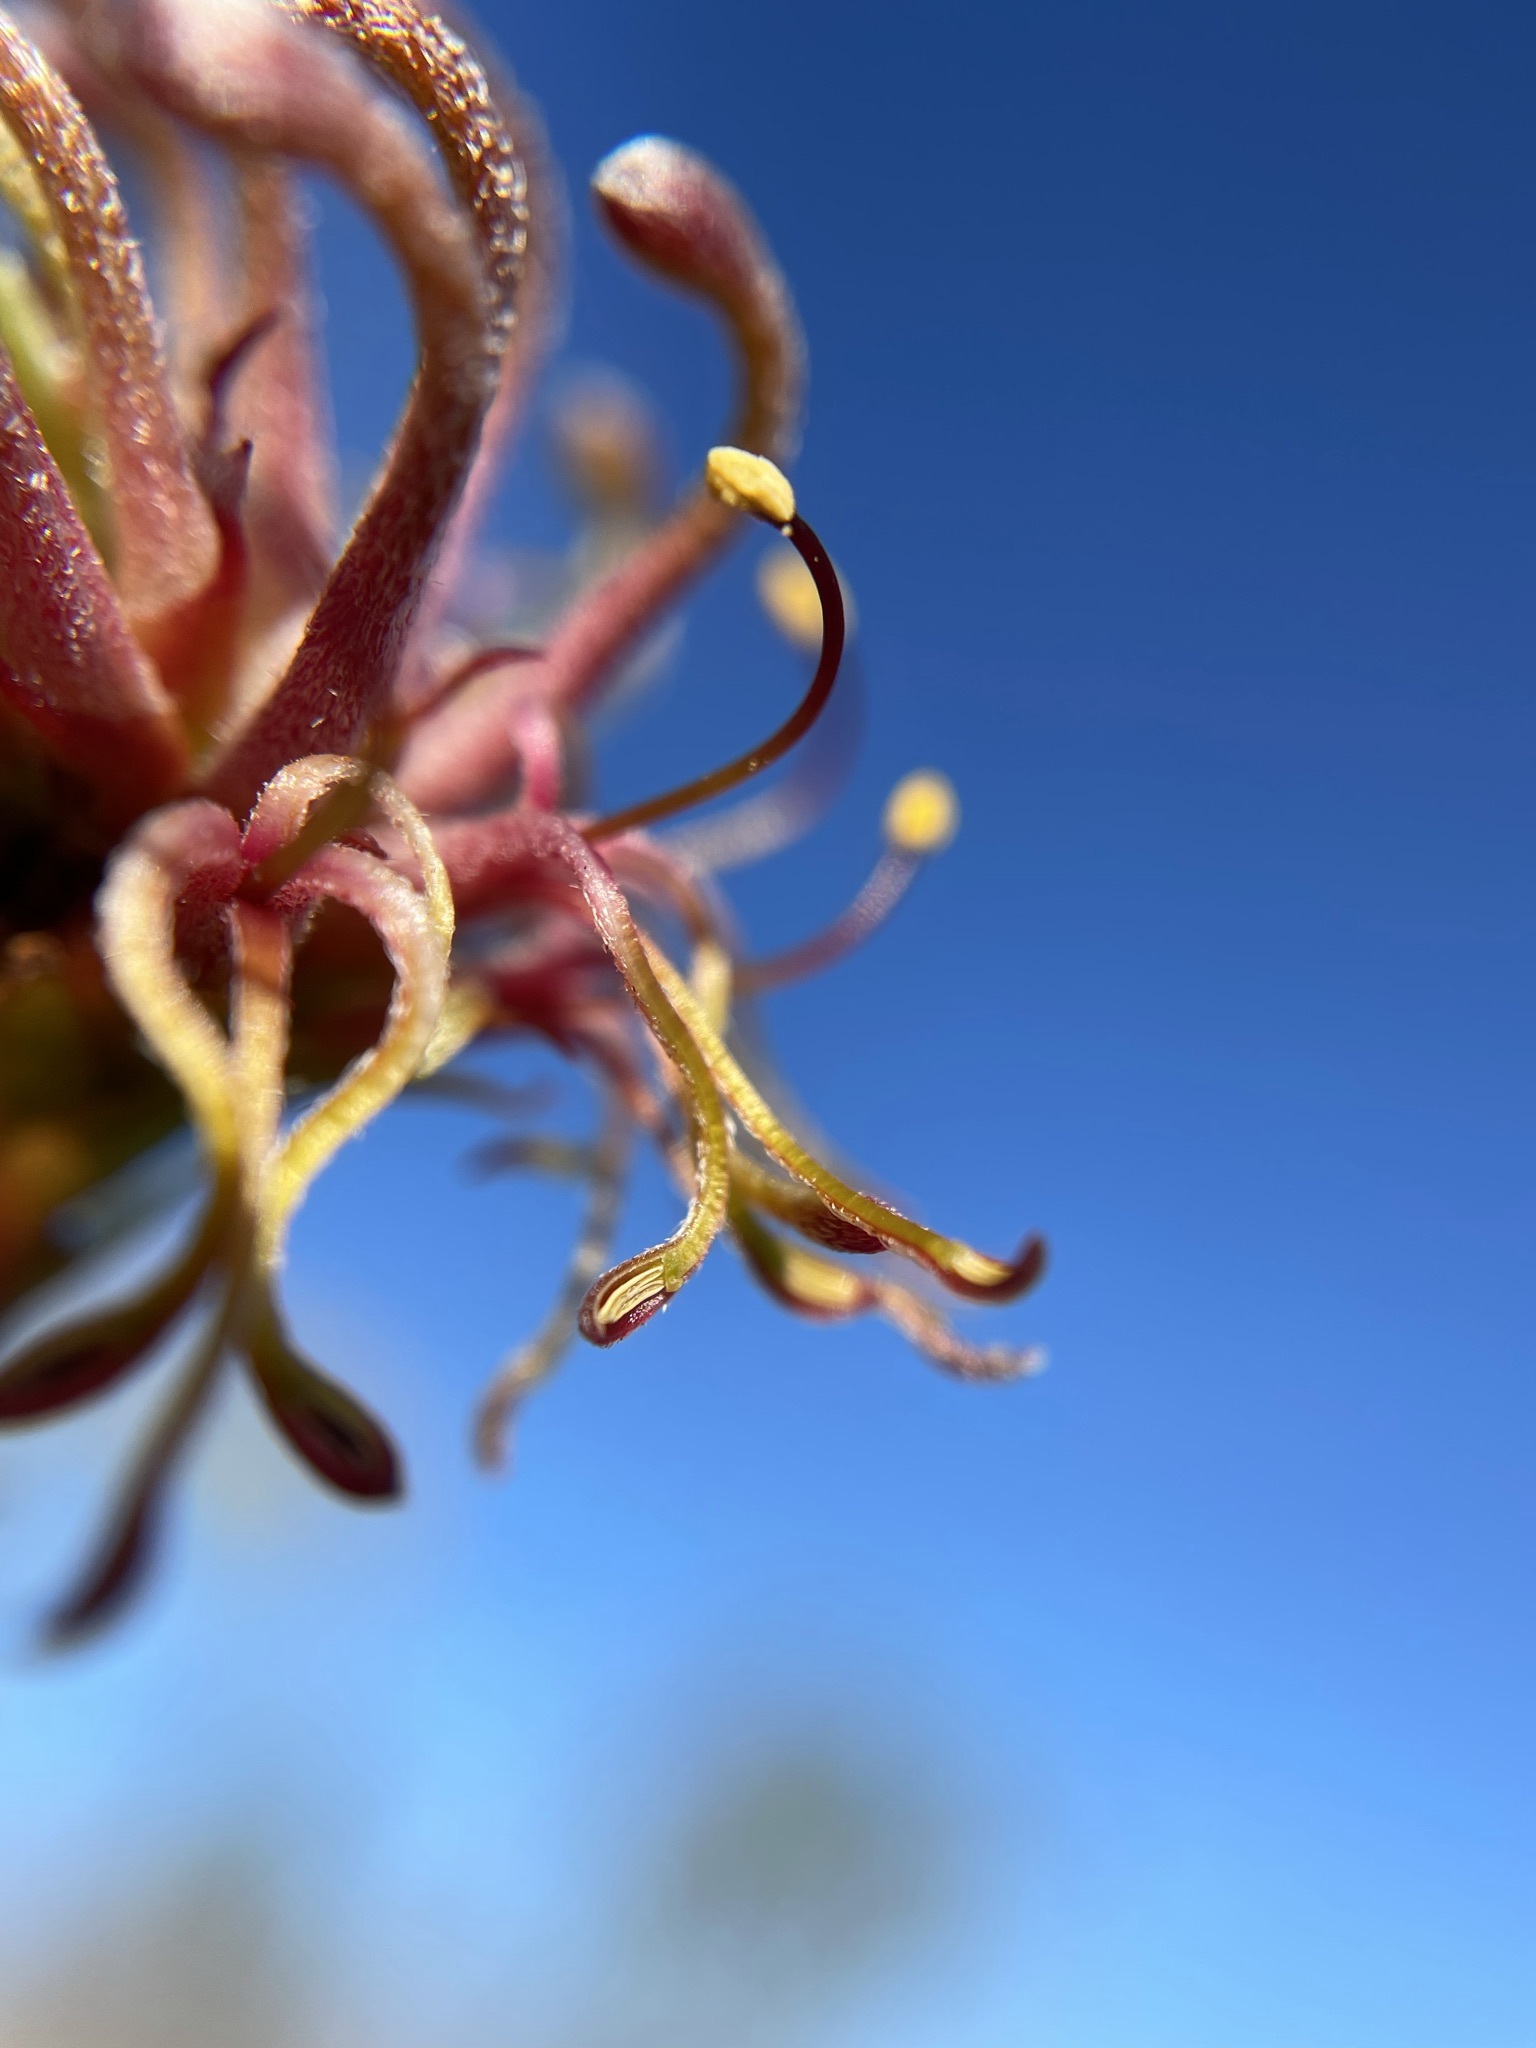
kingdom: Plantae
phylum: Tracheophyta
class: Magnoliopsida
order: Proteales
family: Proteaceae
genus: Serruria
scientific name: Serruria cygnea
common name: Swan spiderhead
